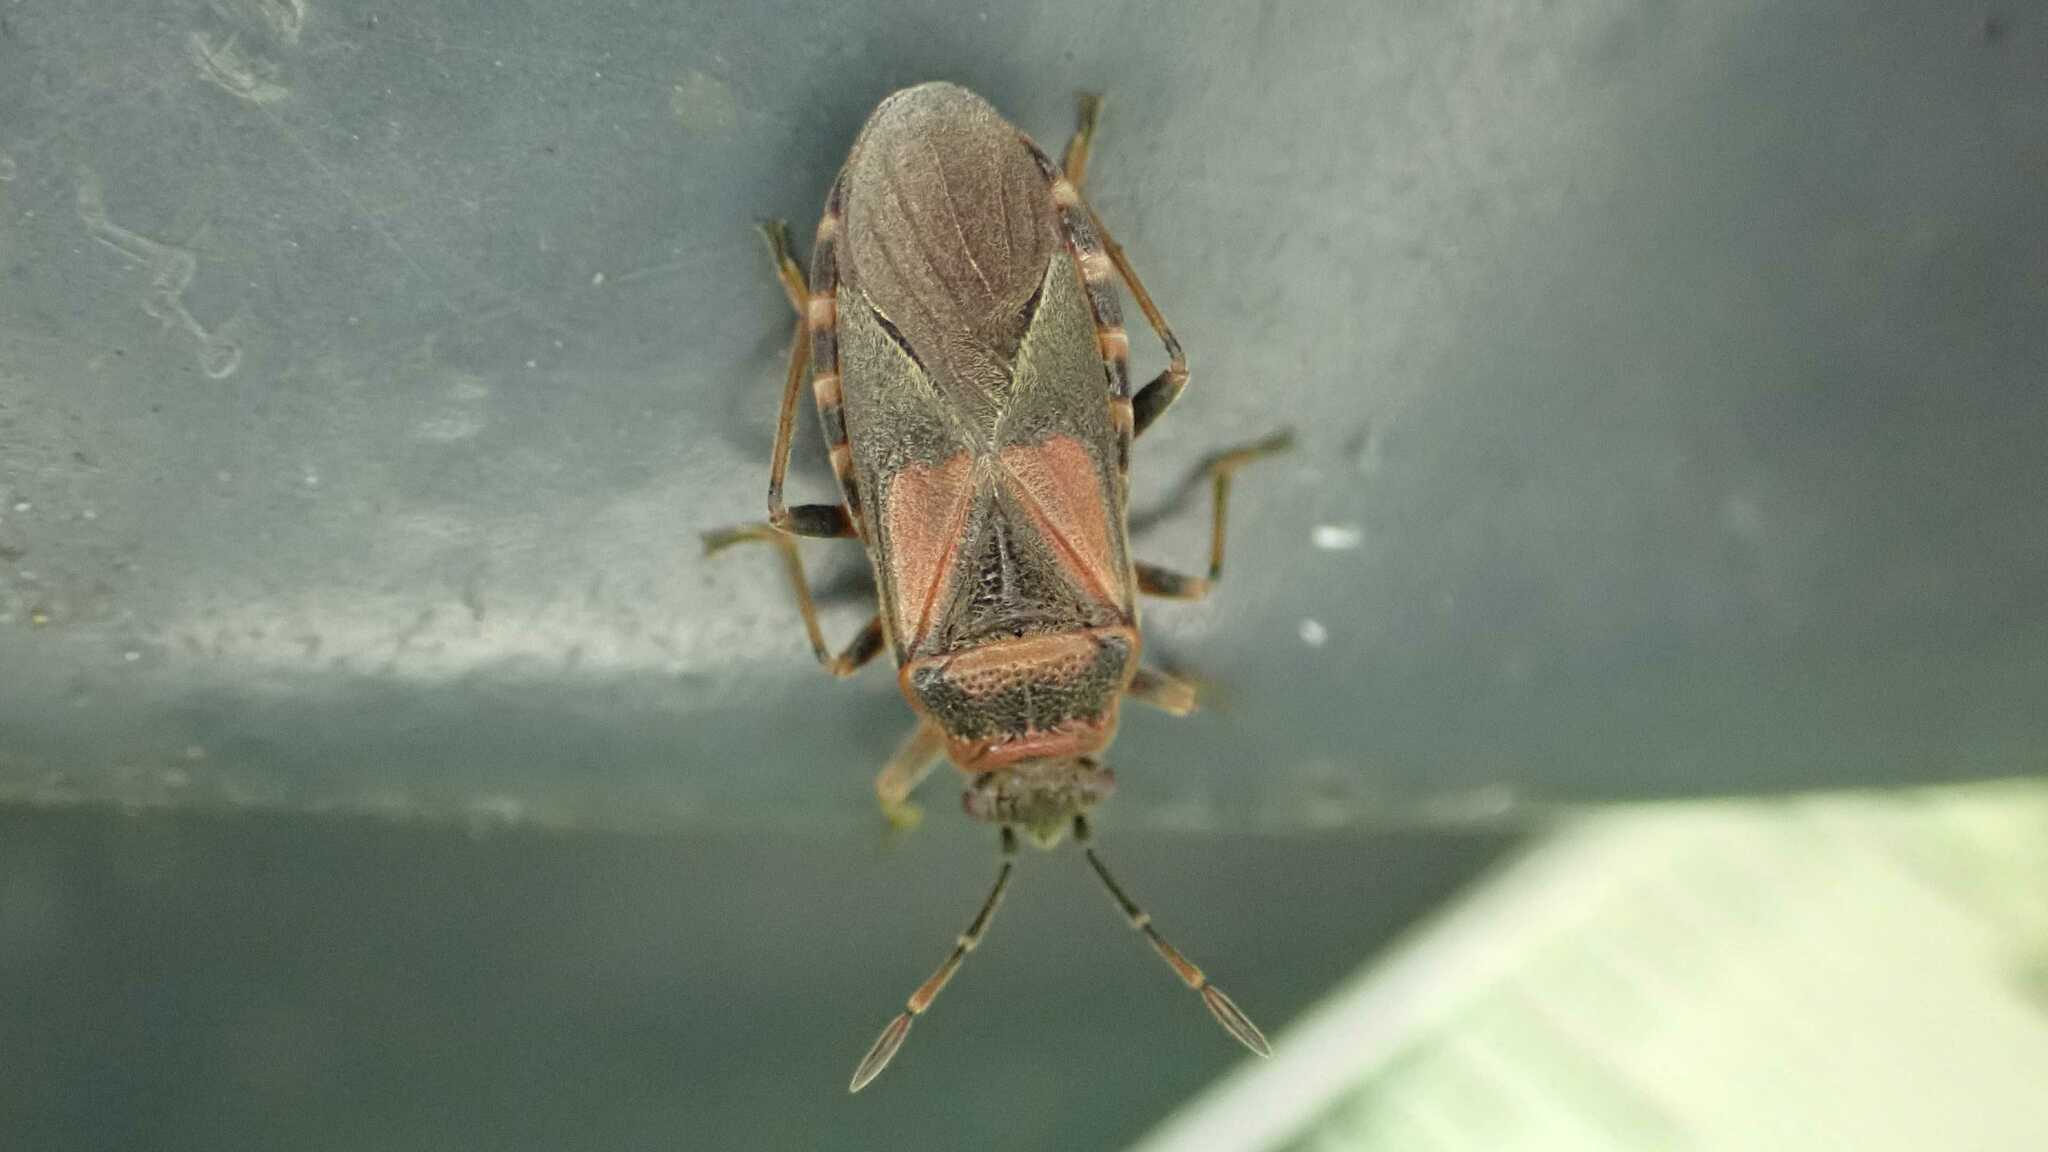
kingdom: Animalia
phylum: Arthropoda
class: Insecta
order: Hemiptera
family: Lygaeidae
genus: Arocatus
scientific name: Arocatus melanocephalus
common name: Lygaeid bug
